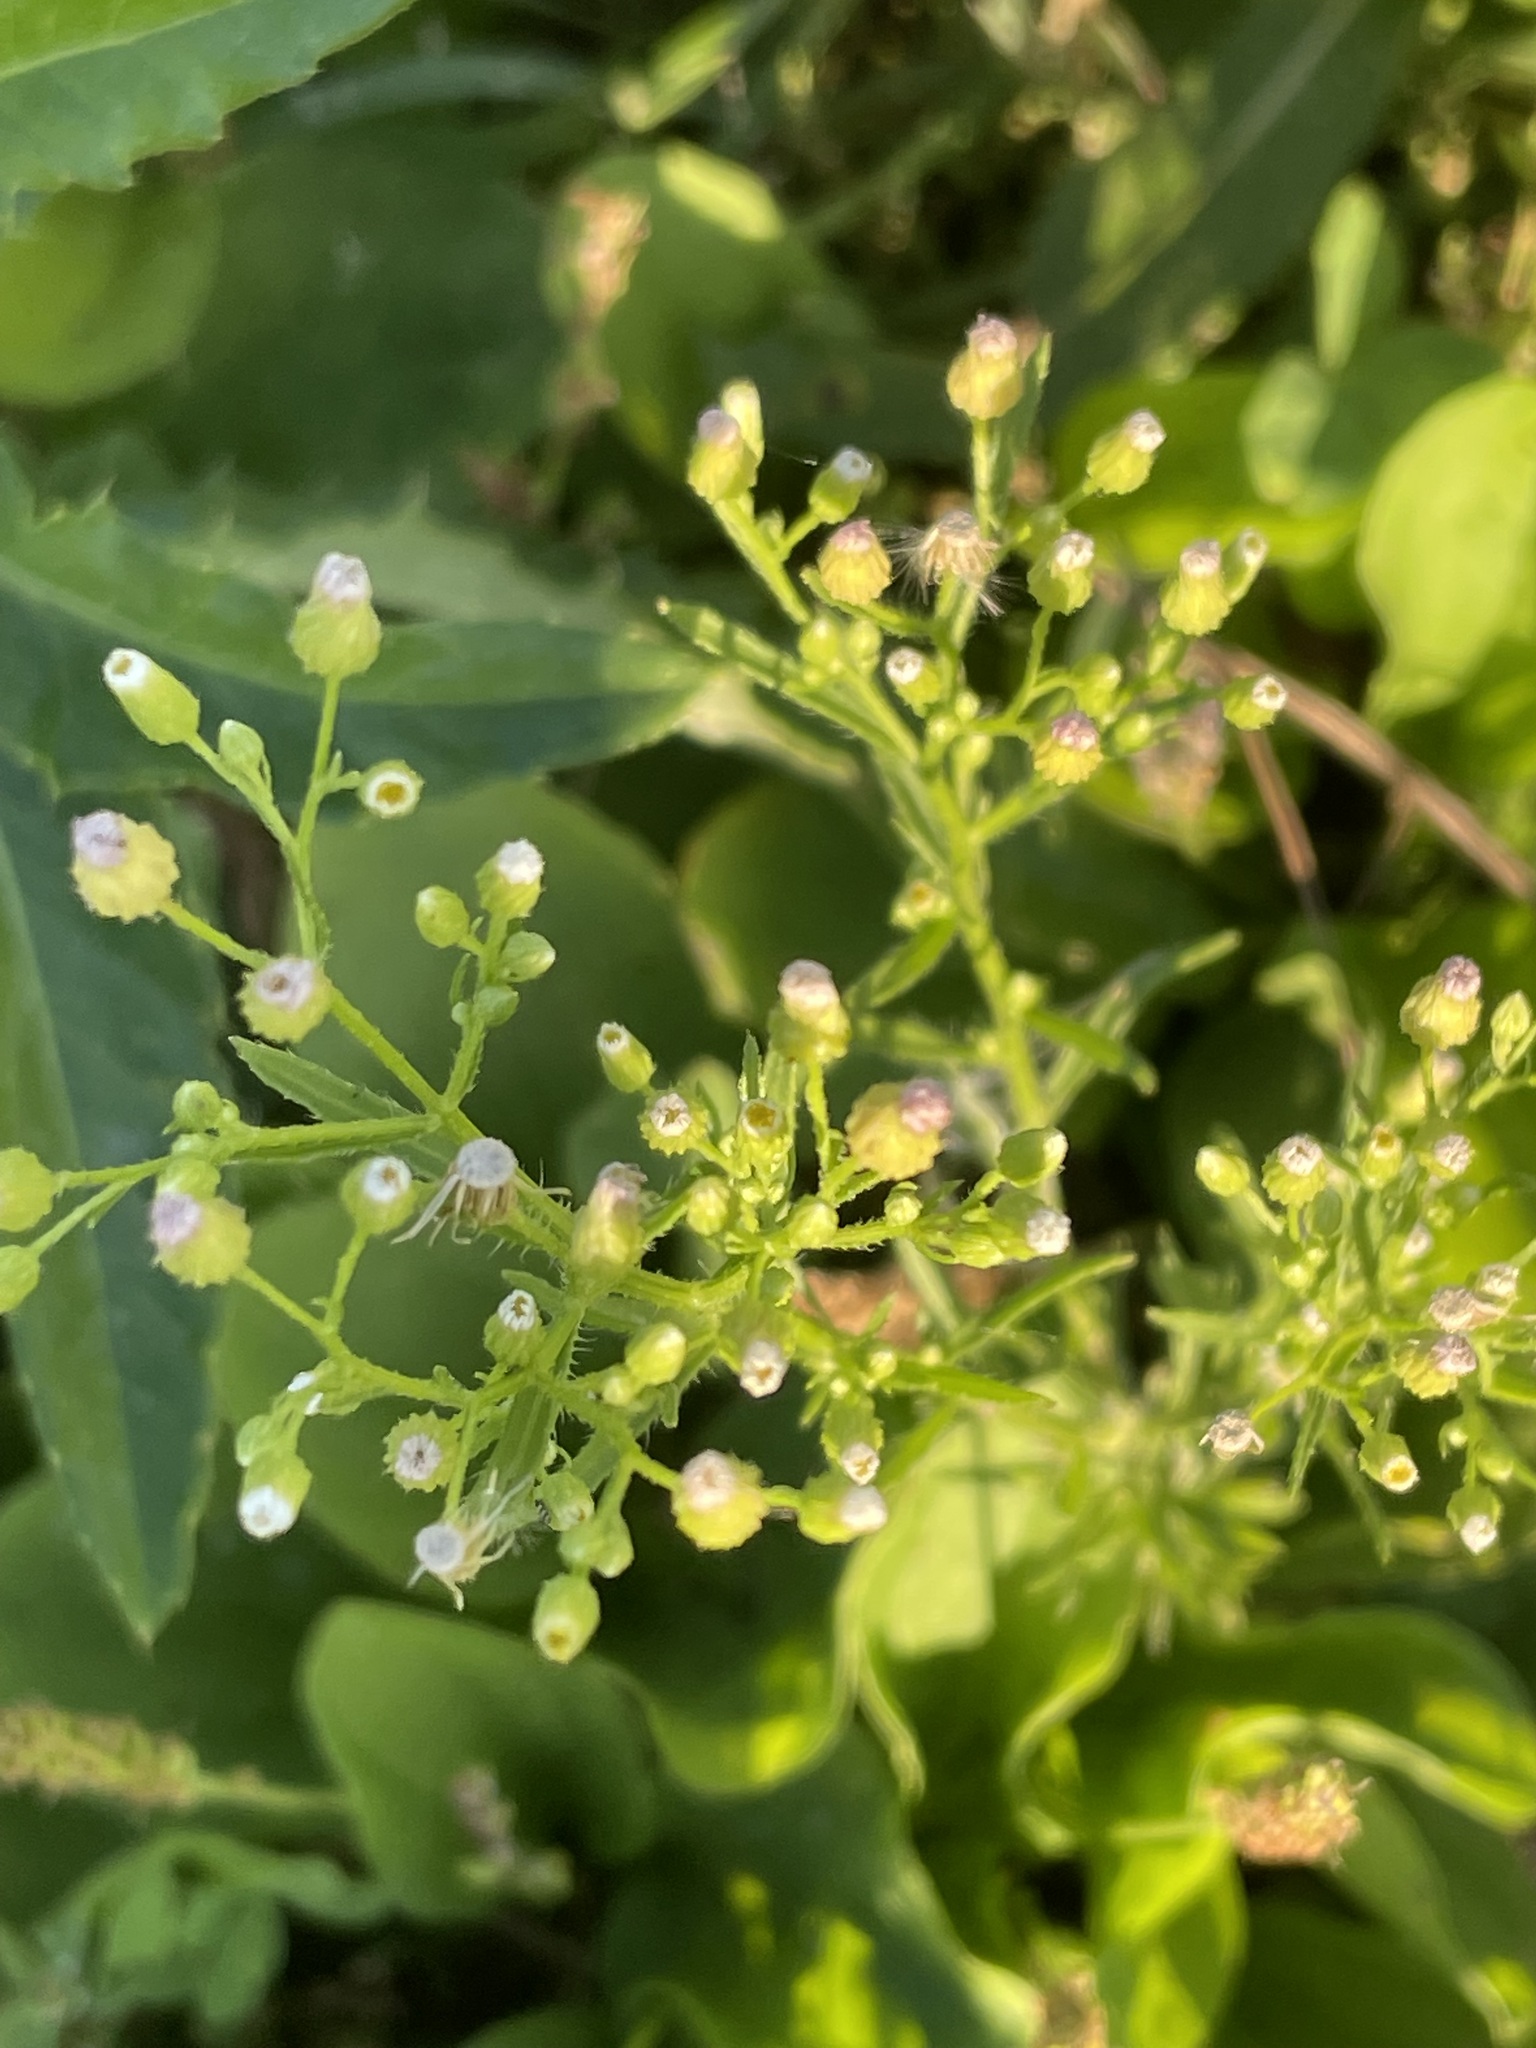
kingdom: Plantae
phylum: Tracheophyta
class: Magnoliopsida
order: Asterales
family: Asteraceae
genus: Erigeron
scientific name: Erigeron canadensis
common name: Canadian fleabane
